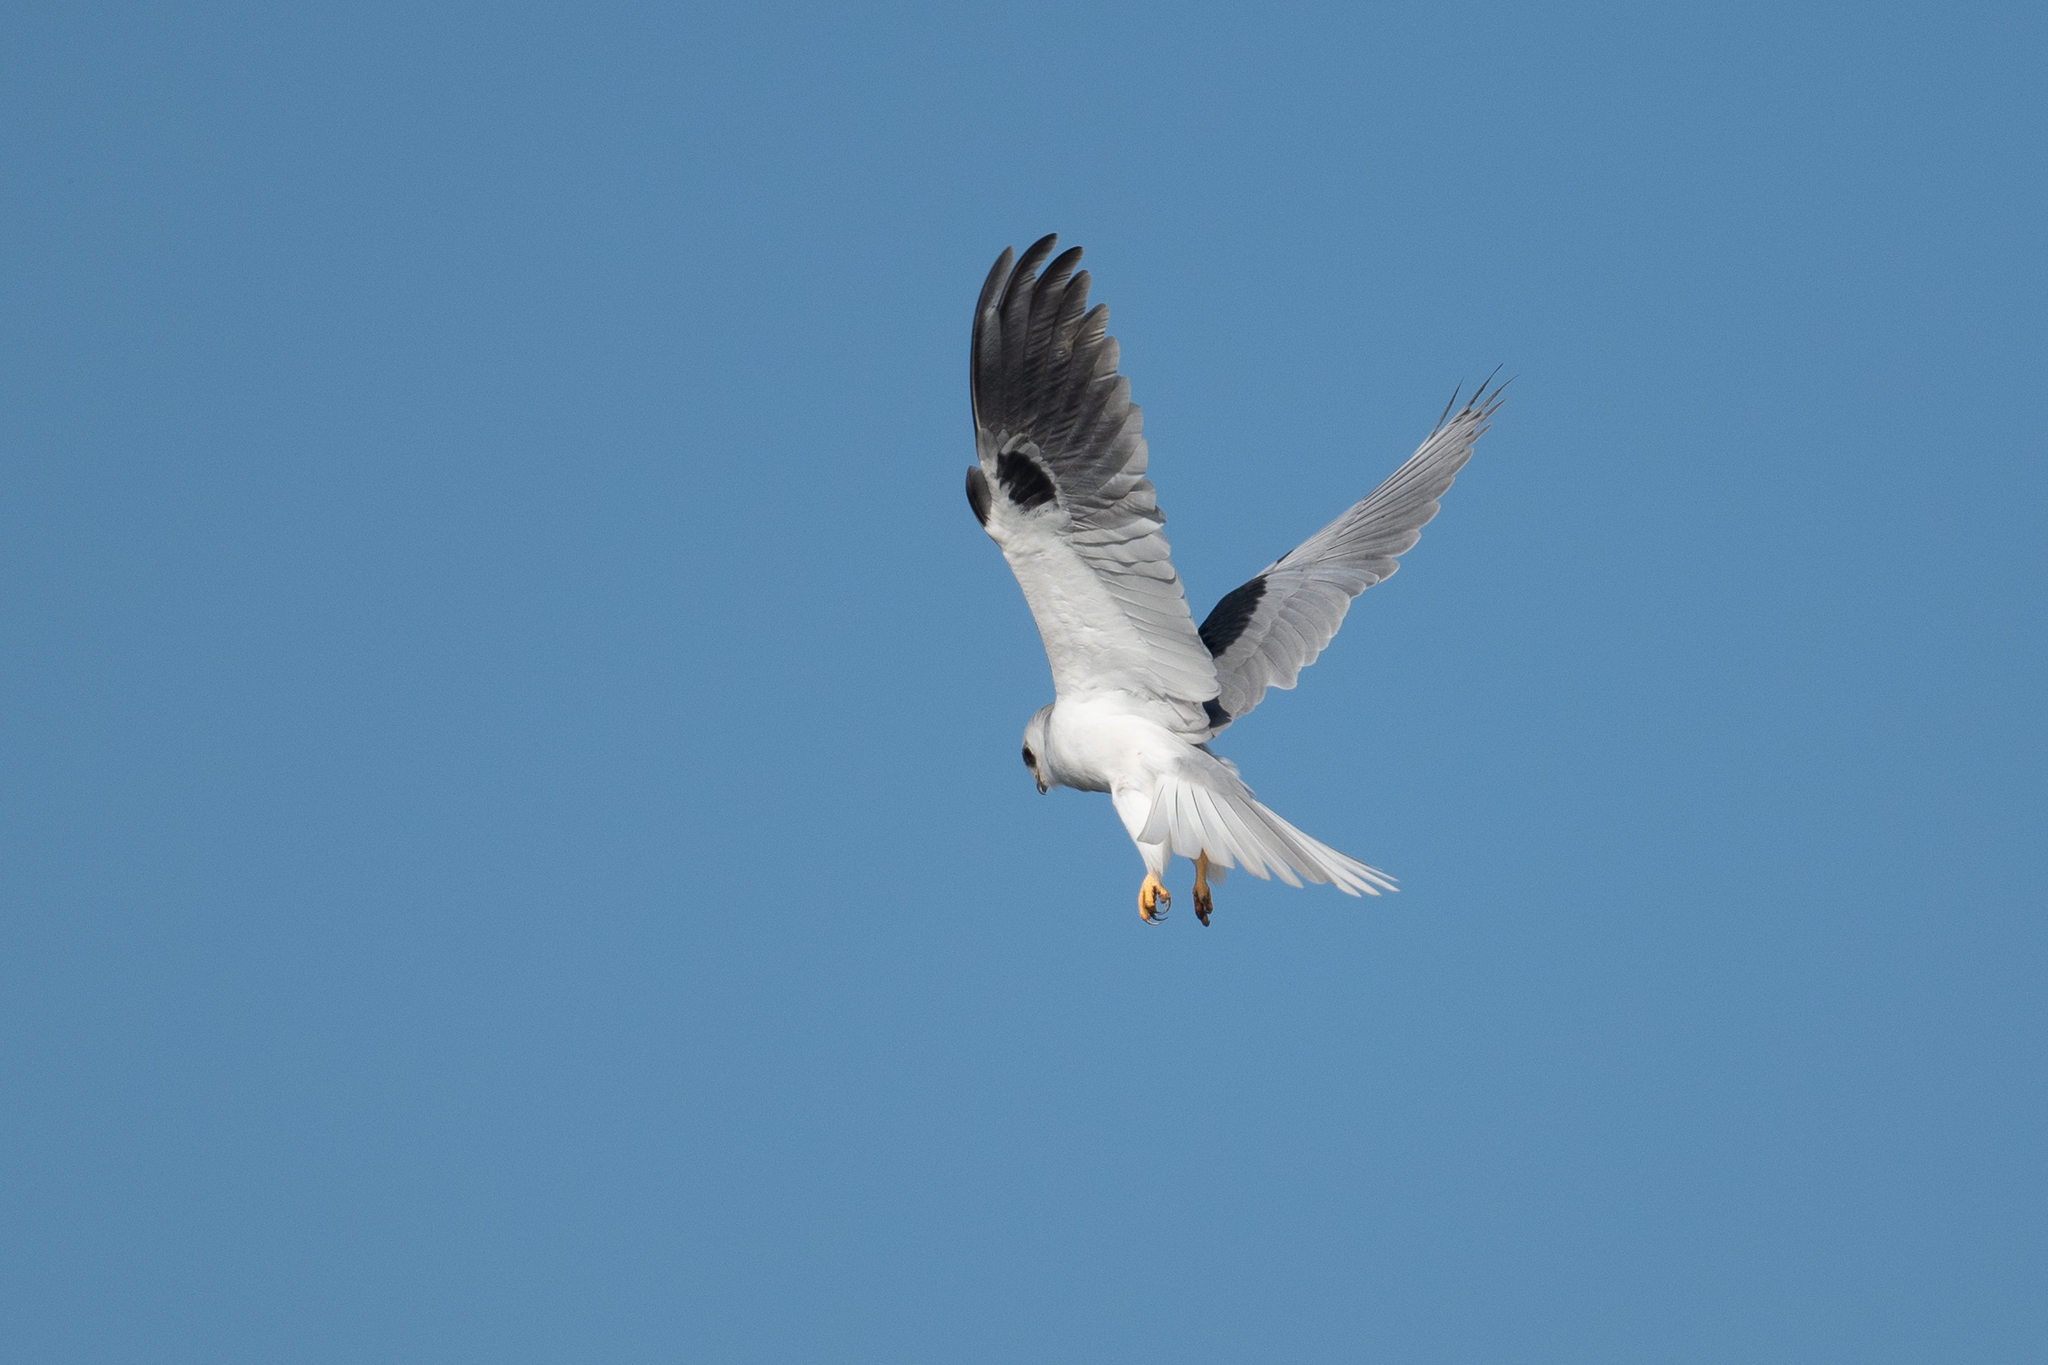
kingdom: Animalia
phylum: Chordata
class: Aves
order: Accipitriformes
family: Accipitridae
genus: Elanus
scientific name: Elanus leucurus
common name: White-tailed kite
